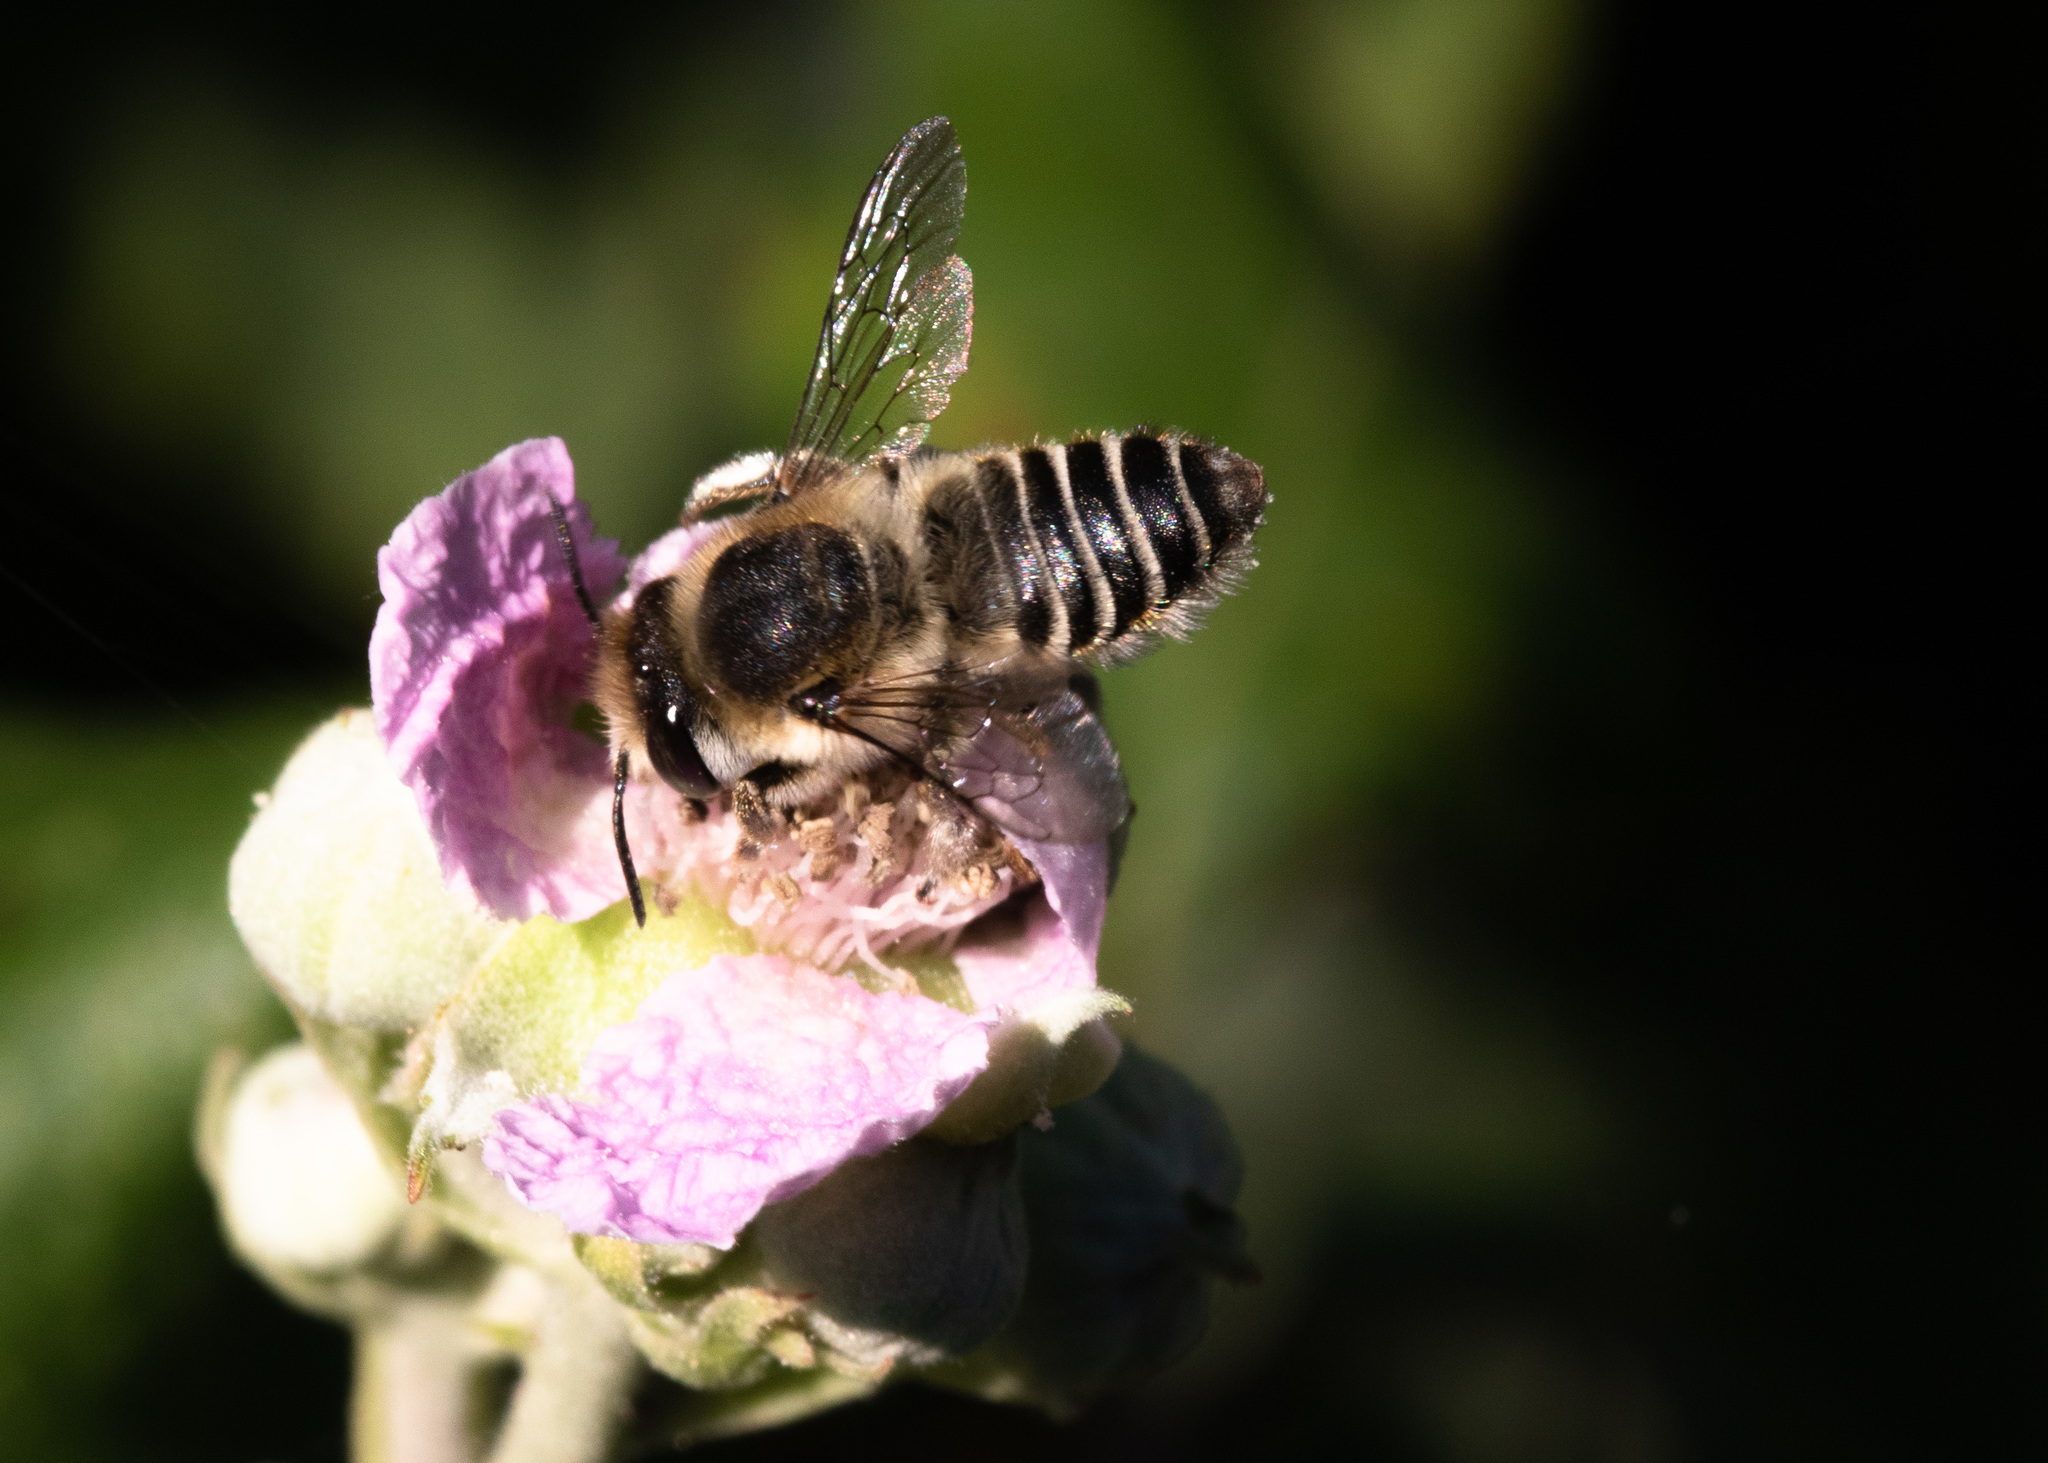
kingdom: Animalia
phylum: Arthropoda
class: Insecta
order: Hymenoptera
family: Megachilidae
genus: Megachile
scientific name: Megachile leachella
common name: Silvery leafcutter bee
